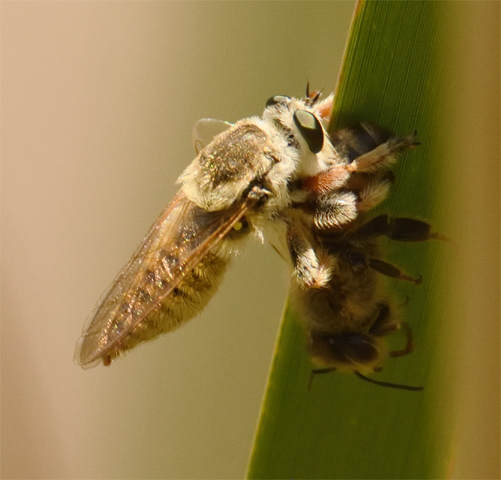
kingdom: Animalia
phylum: Arthropoda
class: Insecta
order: Hymenoptera
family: Apidae
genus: Apis
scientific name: Apis mellifera
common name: Honey bee
